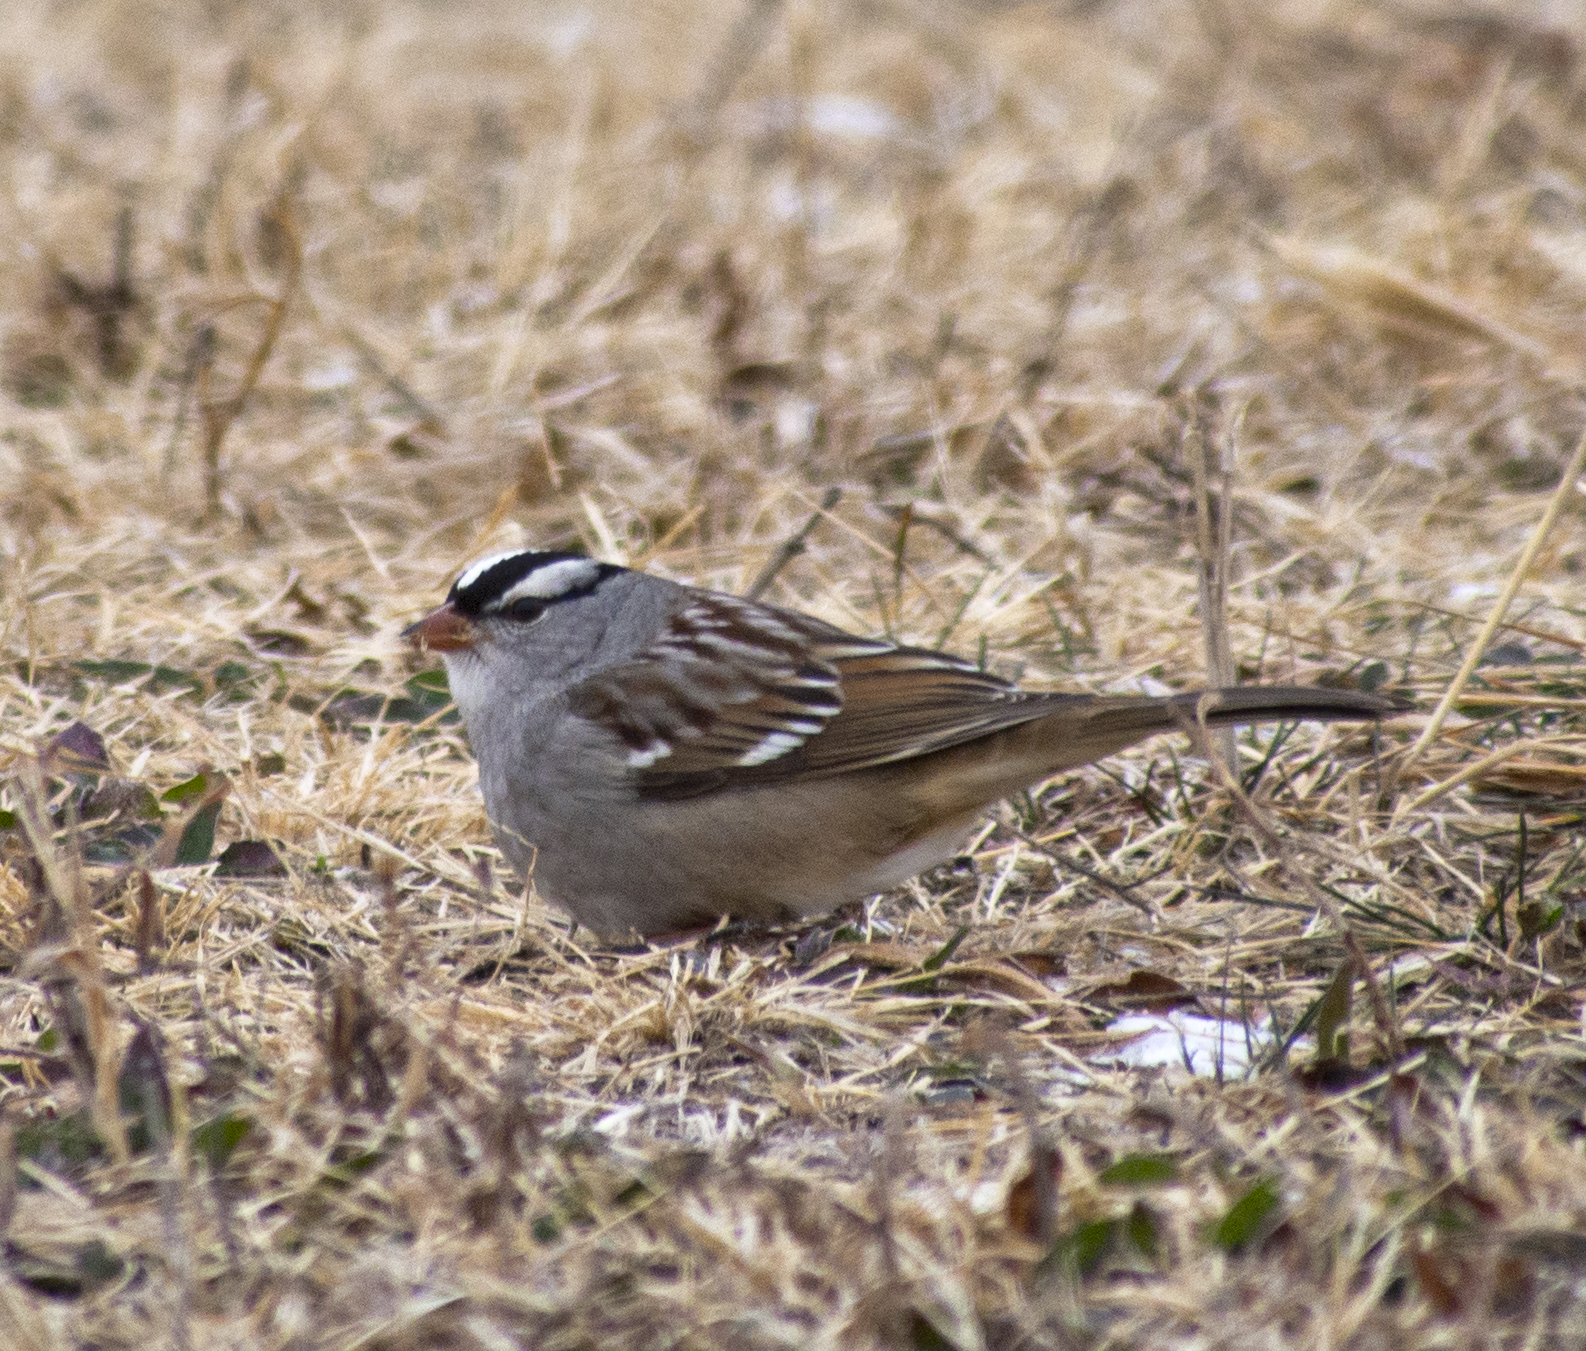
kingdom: Animalia
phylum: Chordata
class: Aves
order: Passeriformes
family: Passerellidae
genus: Zonotrichia
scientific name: Zonotrichia leucophrys
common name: White-crowned sparrow
